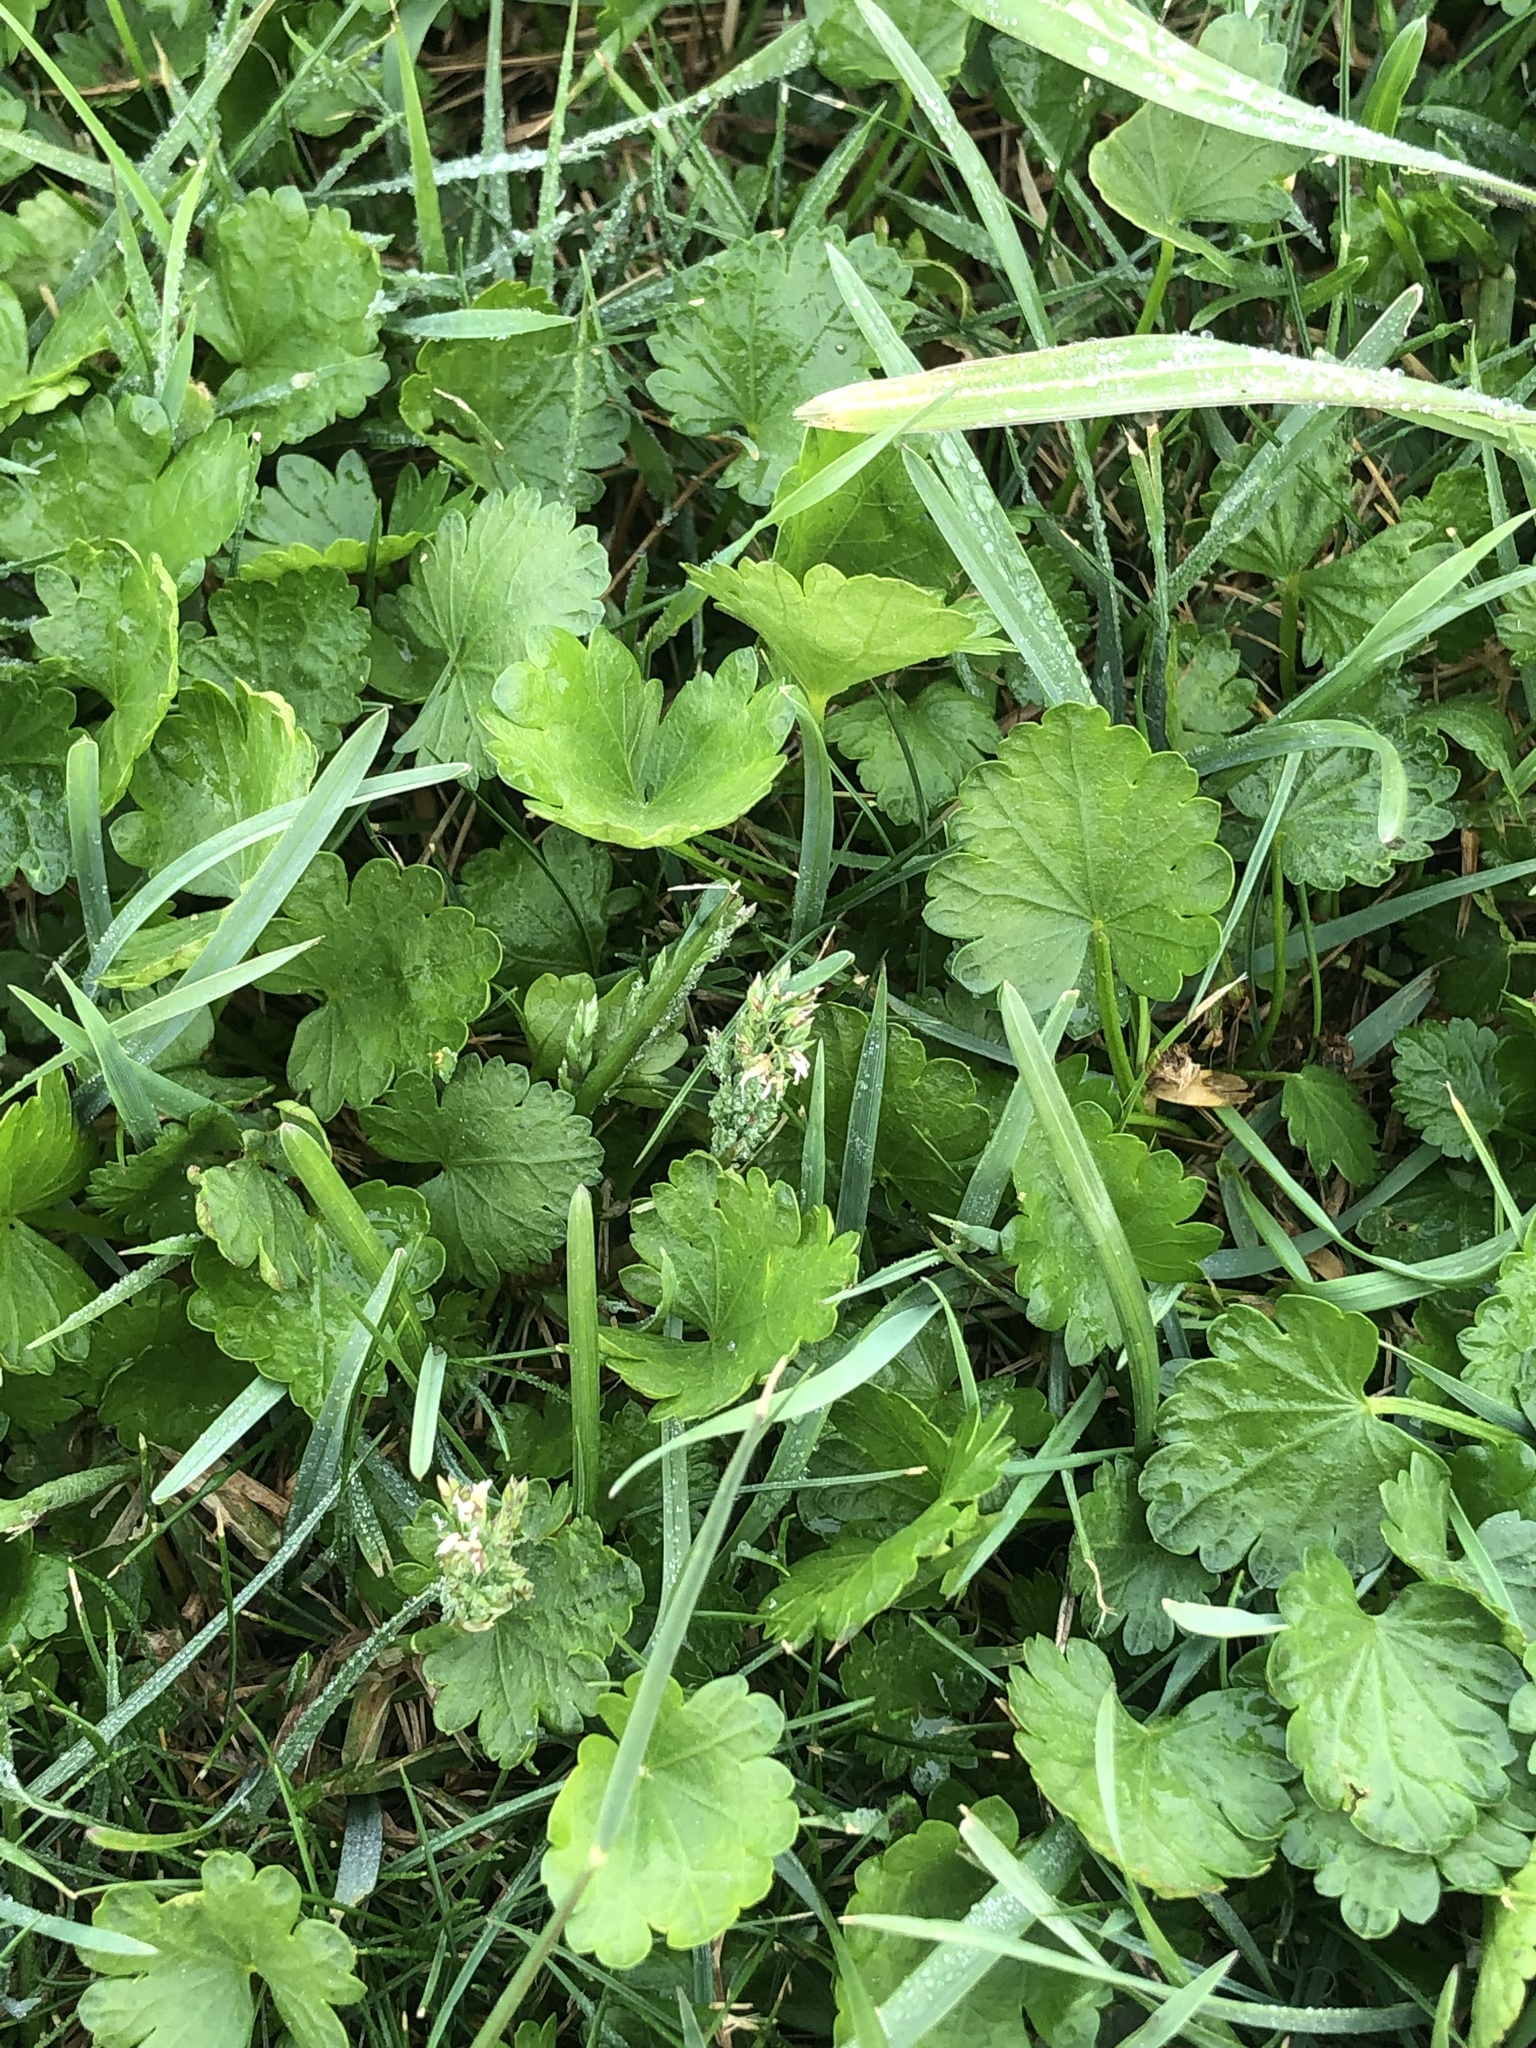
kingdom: Plantae
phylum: Tracheophyta
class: Magnoliopsida
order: Malvales
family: Malvaceae
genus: Modiola
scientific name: Modiola caroliniana
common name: Carolina bristlemallow
